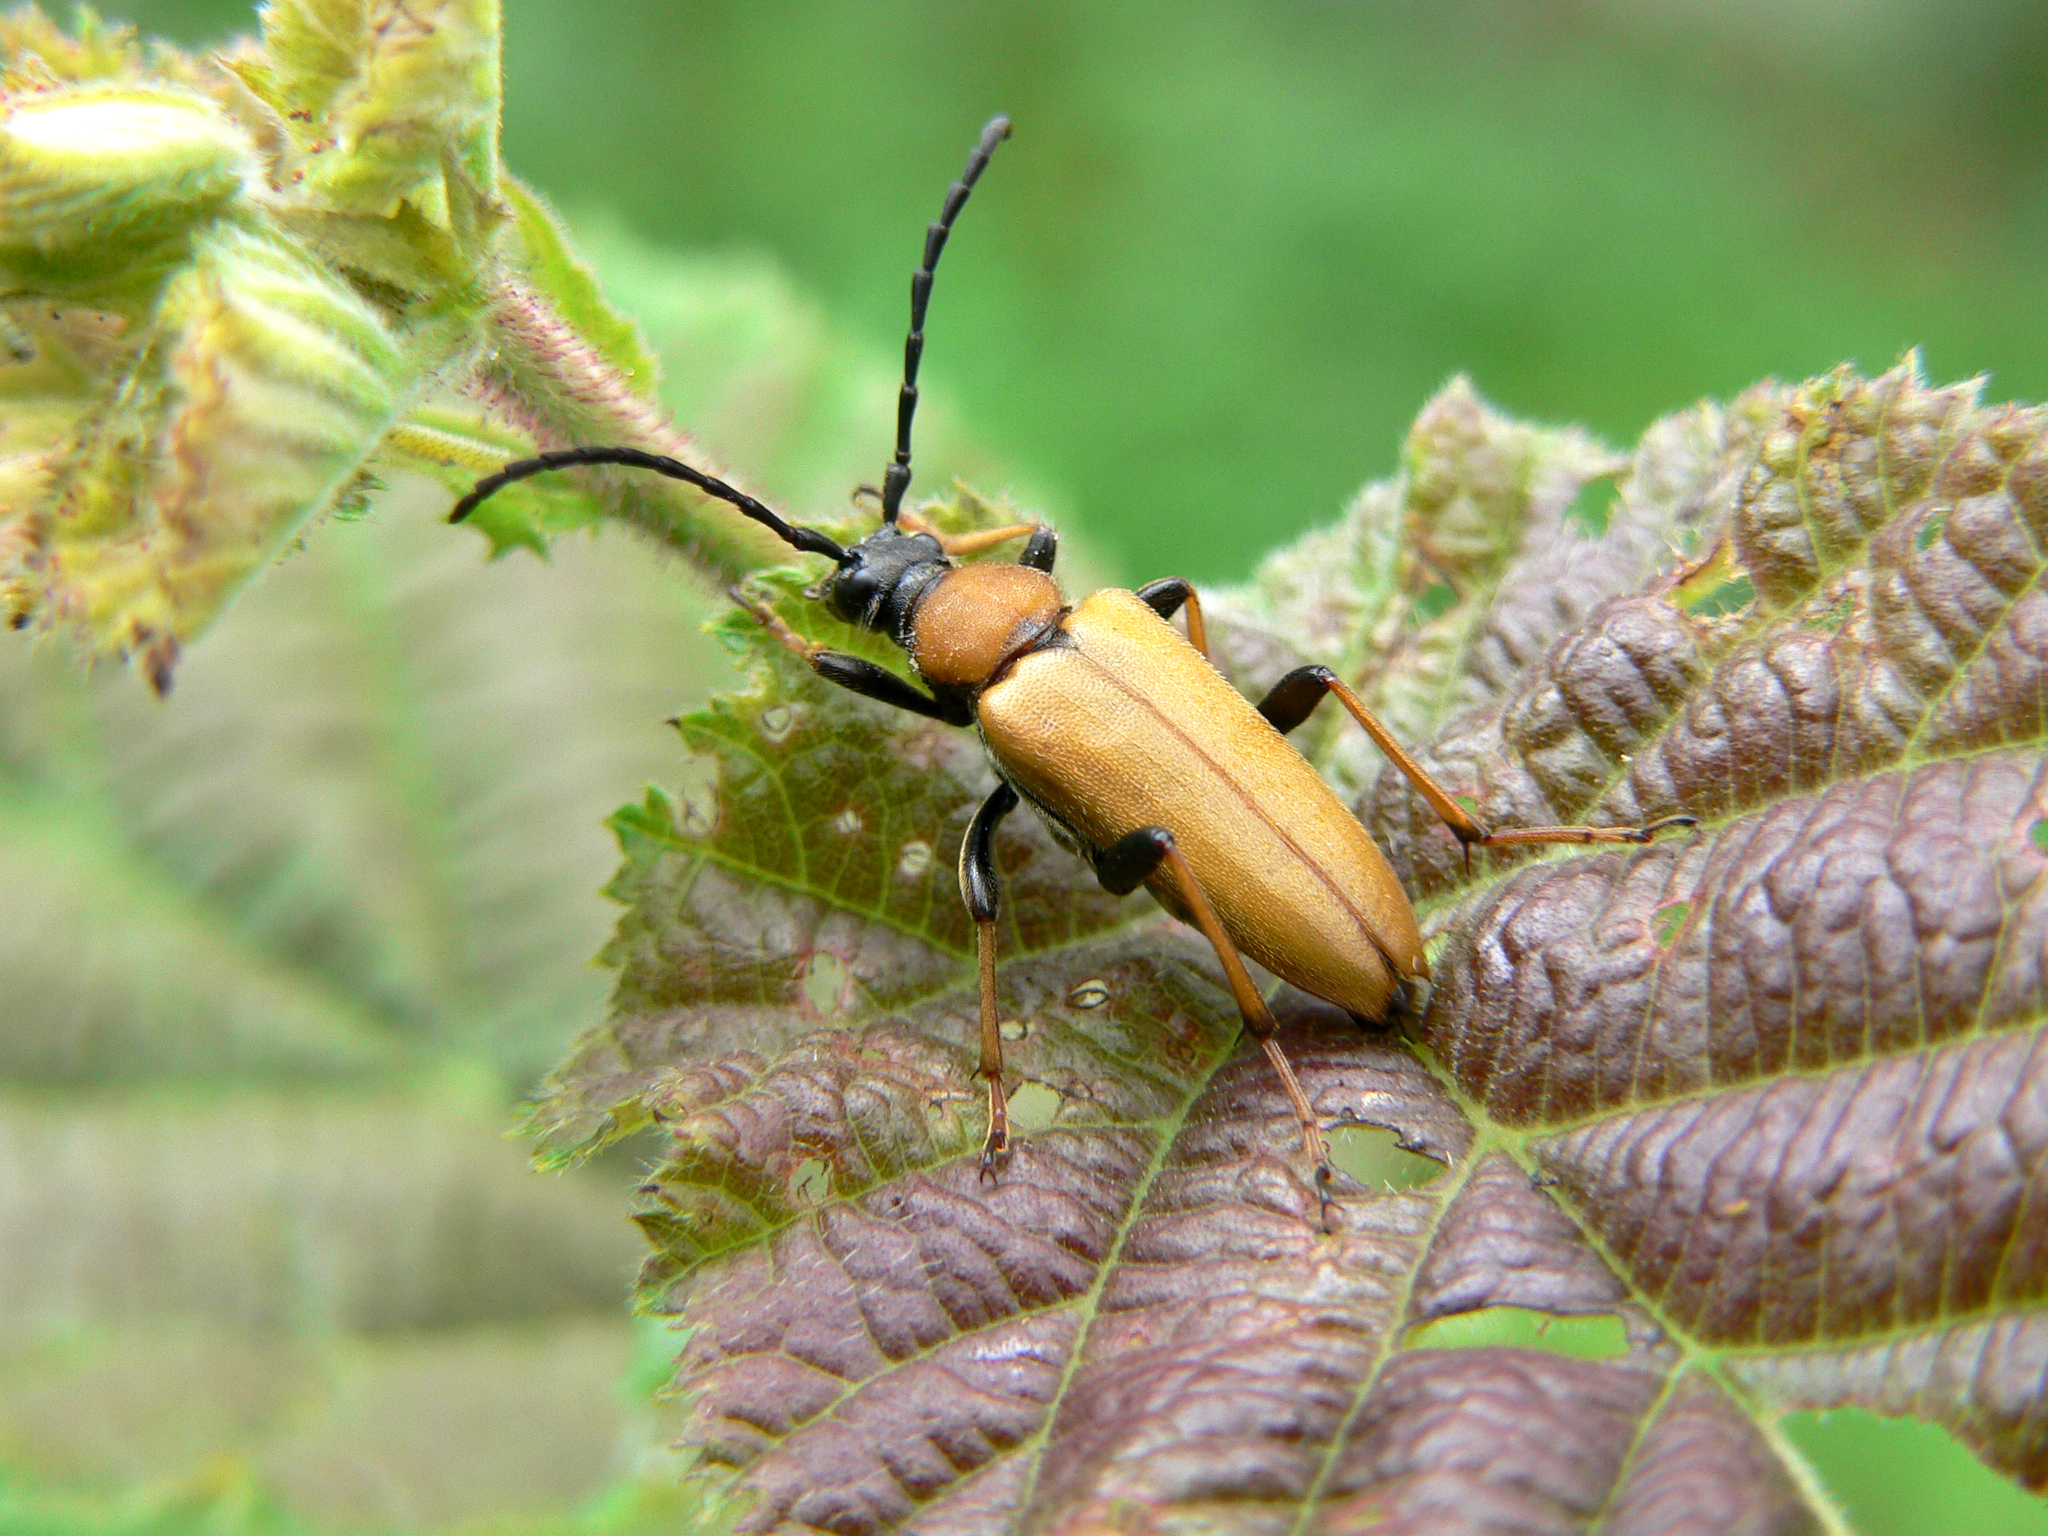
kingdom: Animalia
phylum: Arthropoda
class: Insecta
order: Coleoptera
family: Cerambycidae
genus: Stictoleptura
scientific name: Stictoleptura rubra
